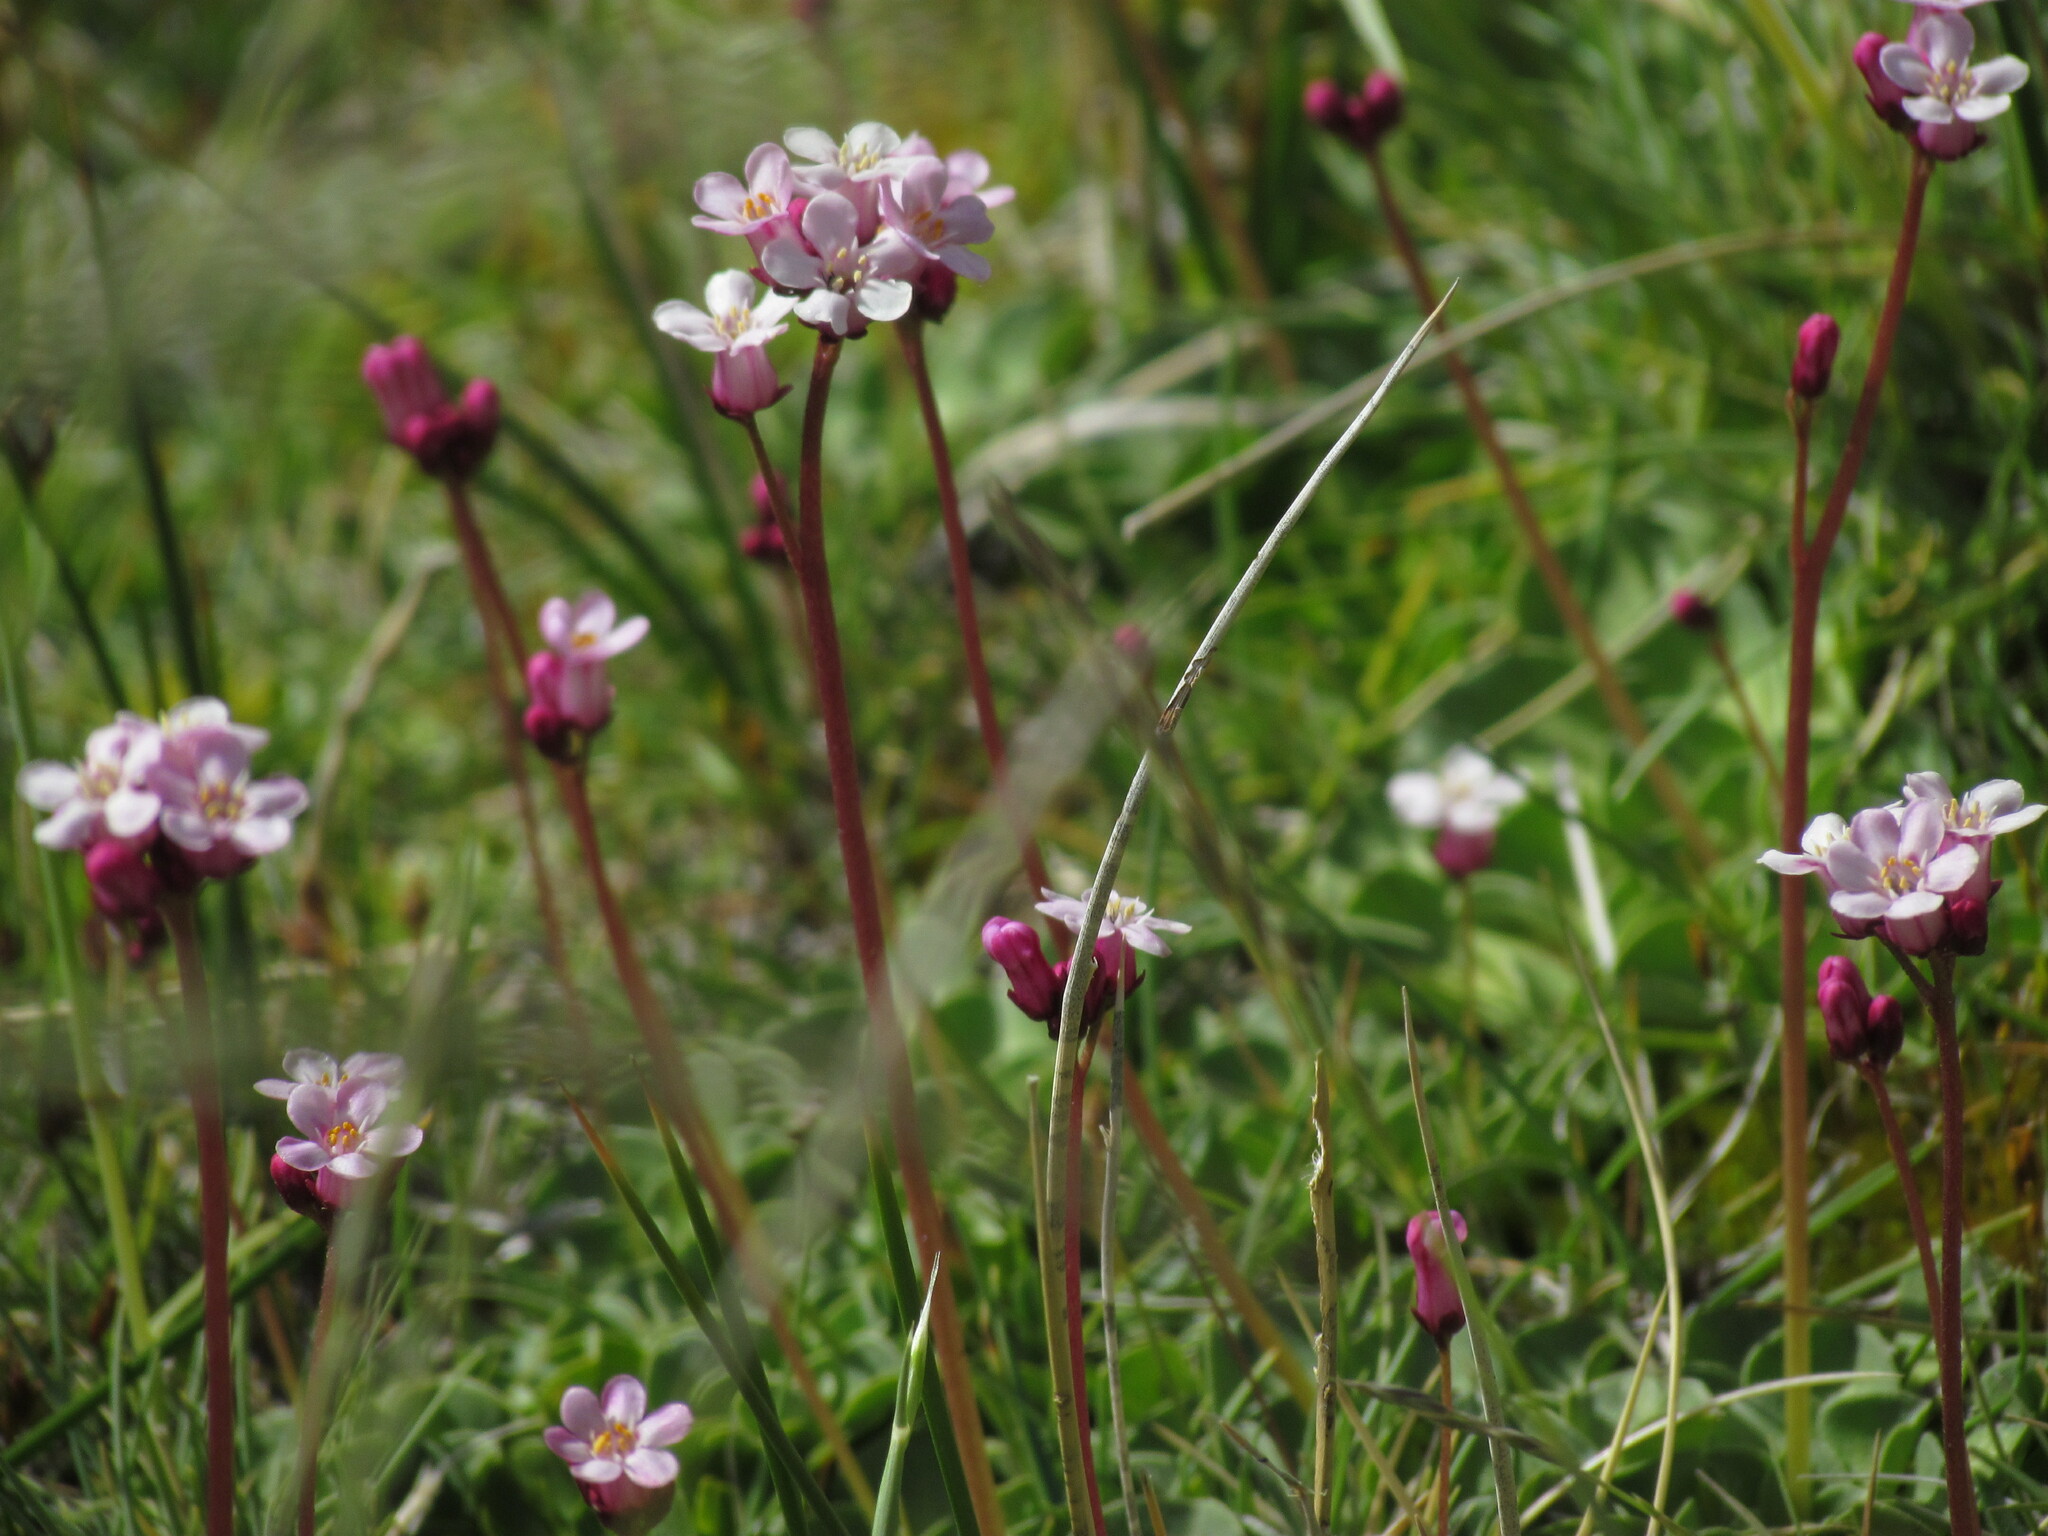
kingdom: Plantae
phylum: Tracheophyta
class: Magnoliopsida
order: Ericales
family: Primulaceae
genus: Samolus
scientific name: Samolus spathulatus
